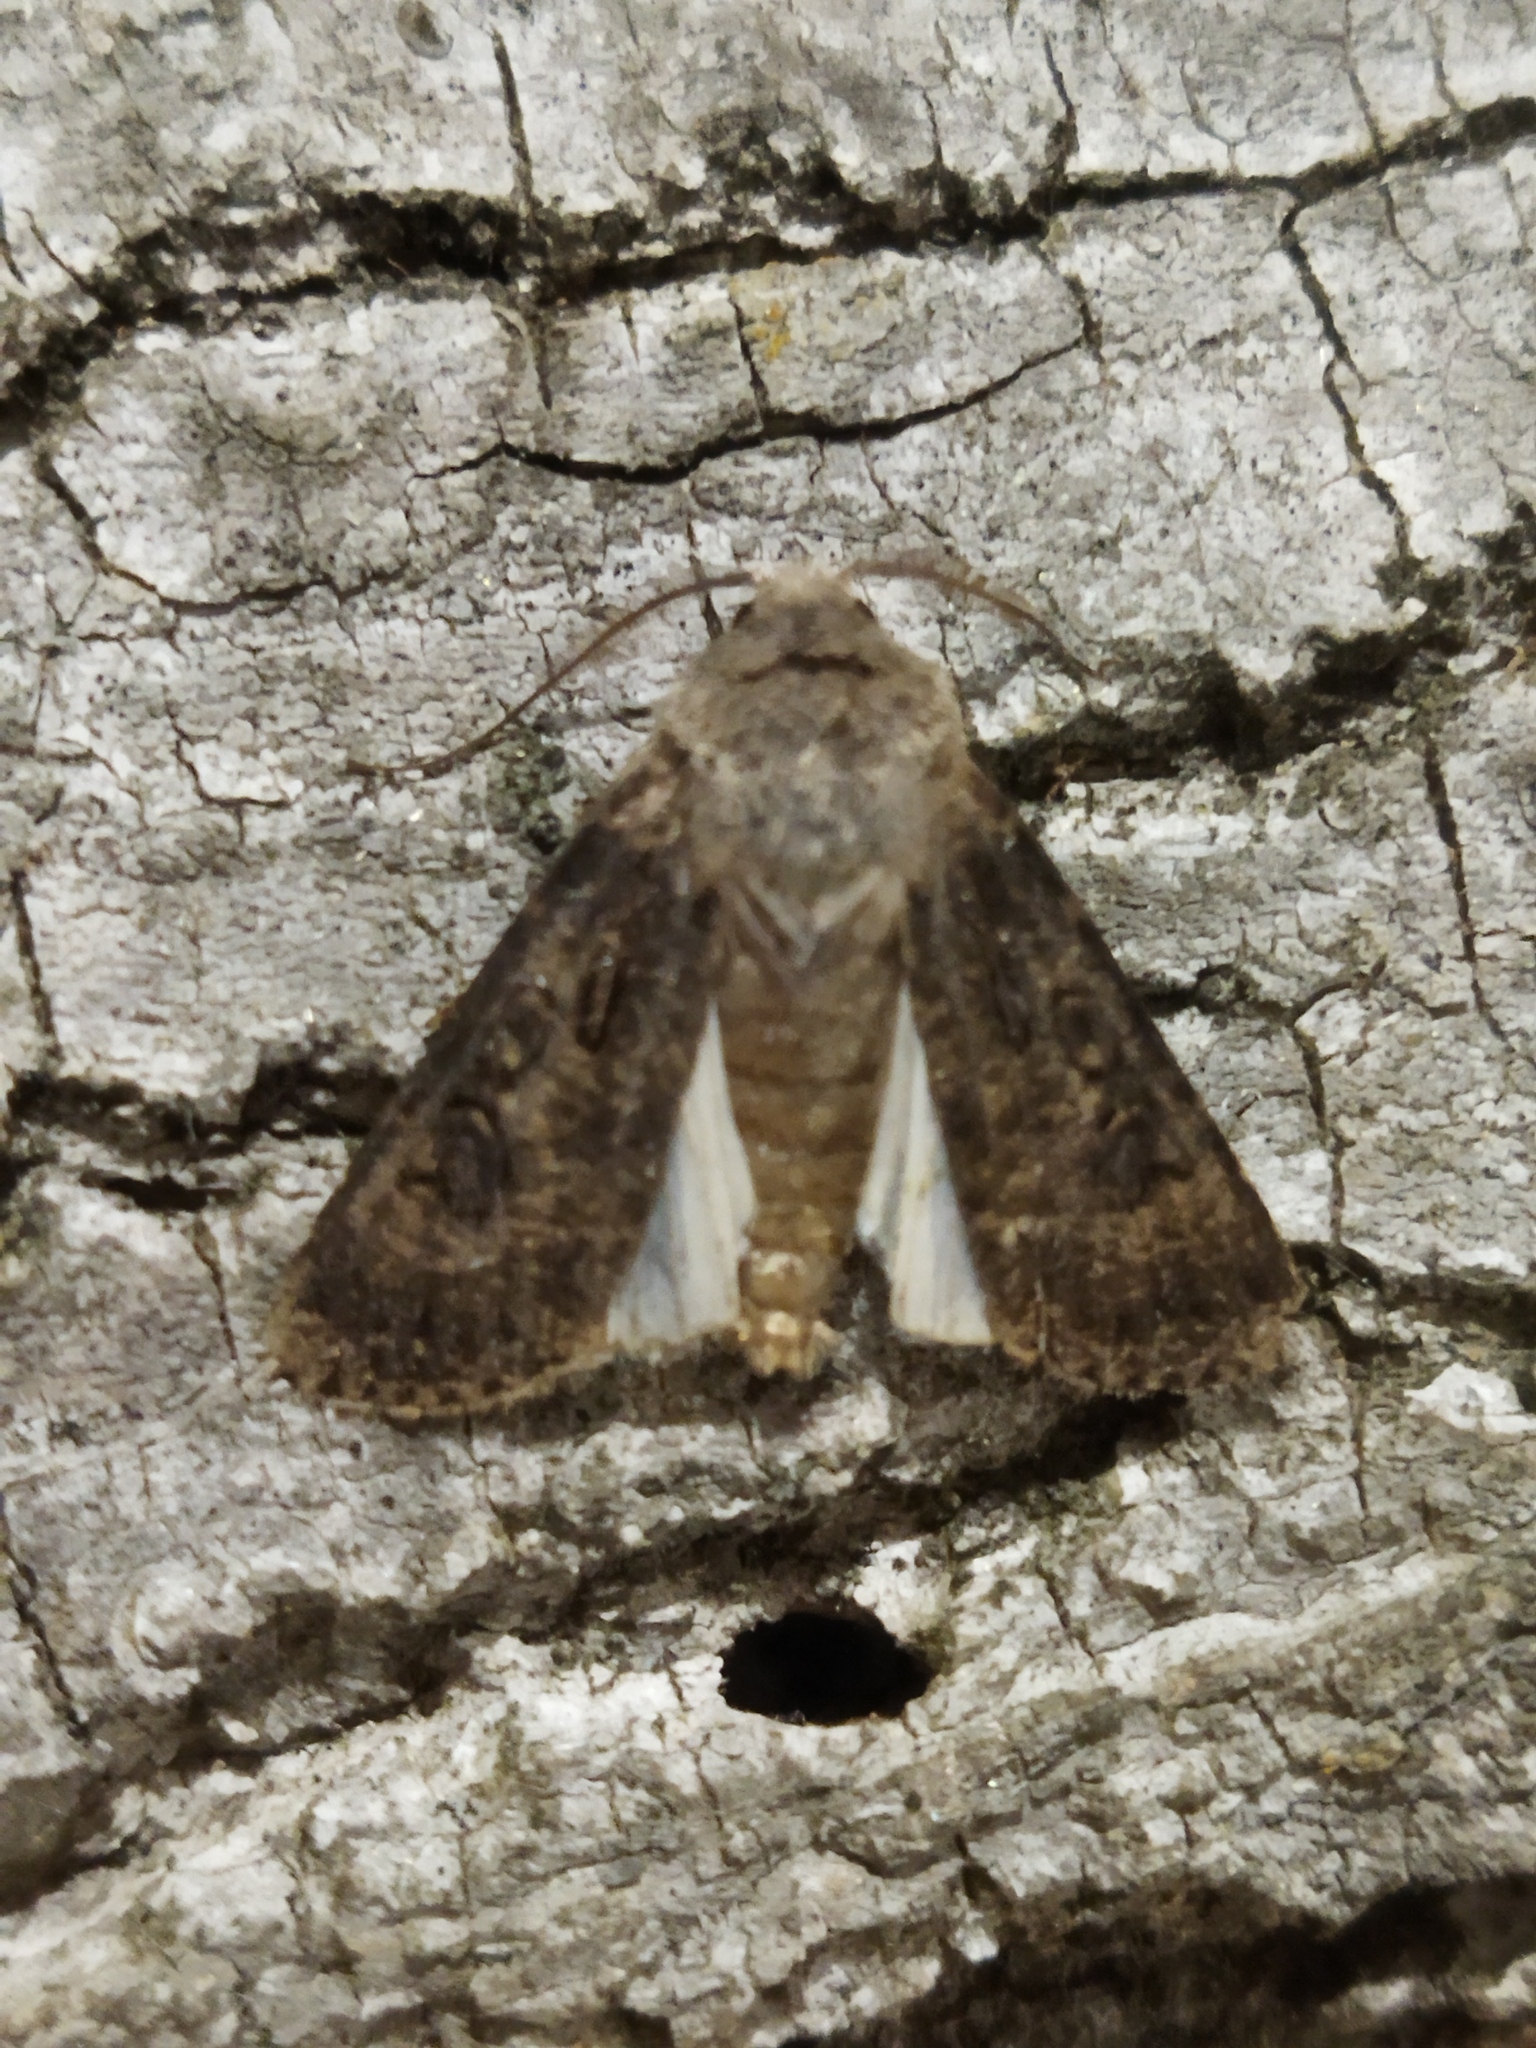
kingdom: Animalia
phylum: Arthropoda
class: Insecta
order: Lepidoptera
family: Noctuidae
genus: Agrotis
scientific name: Agrotis segetum
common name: Turnip moth
